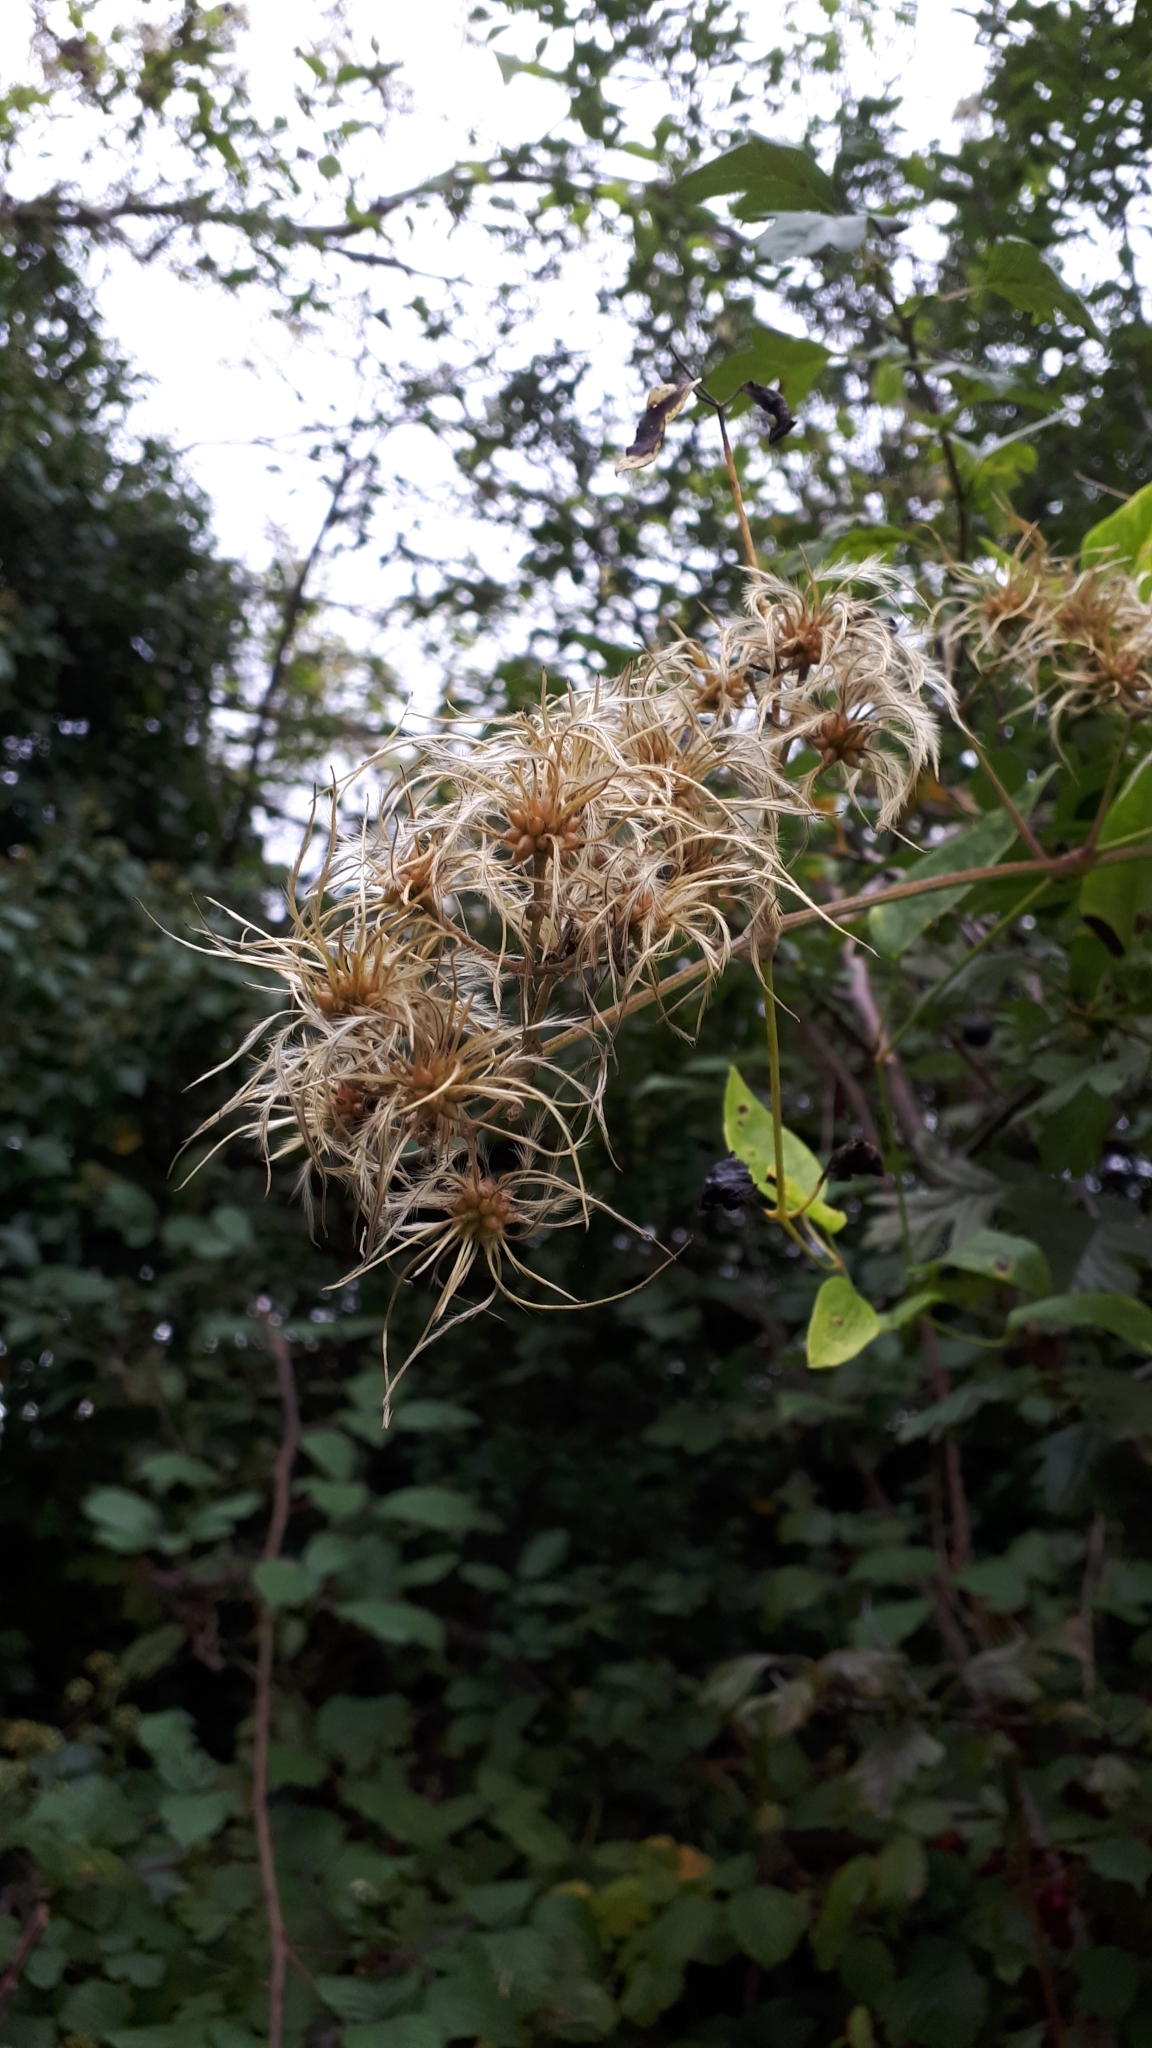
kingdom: Plantae
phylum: Tracheophyta
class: Magnoliopsida
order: Ranunculales
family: Ranunculaceae
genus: Clematis
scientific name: Clematis vitalba
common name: Evergreen clematis
